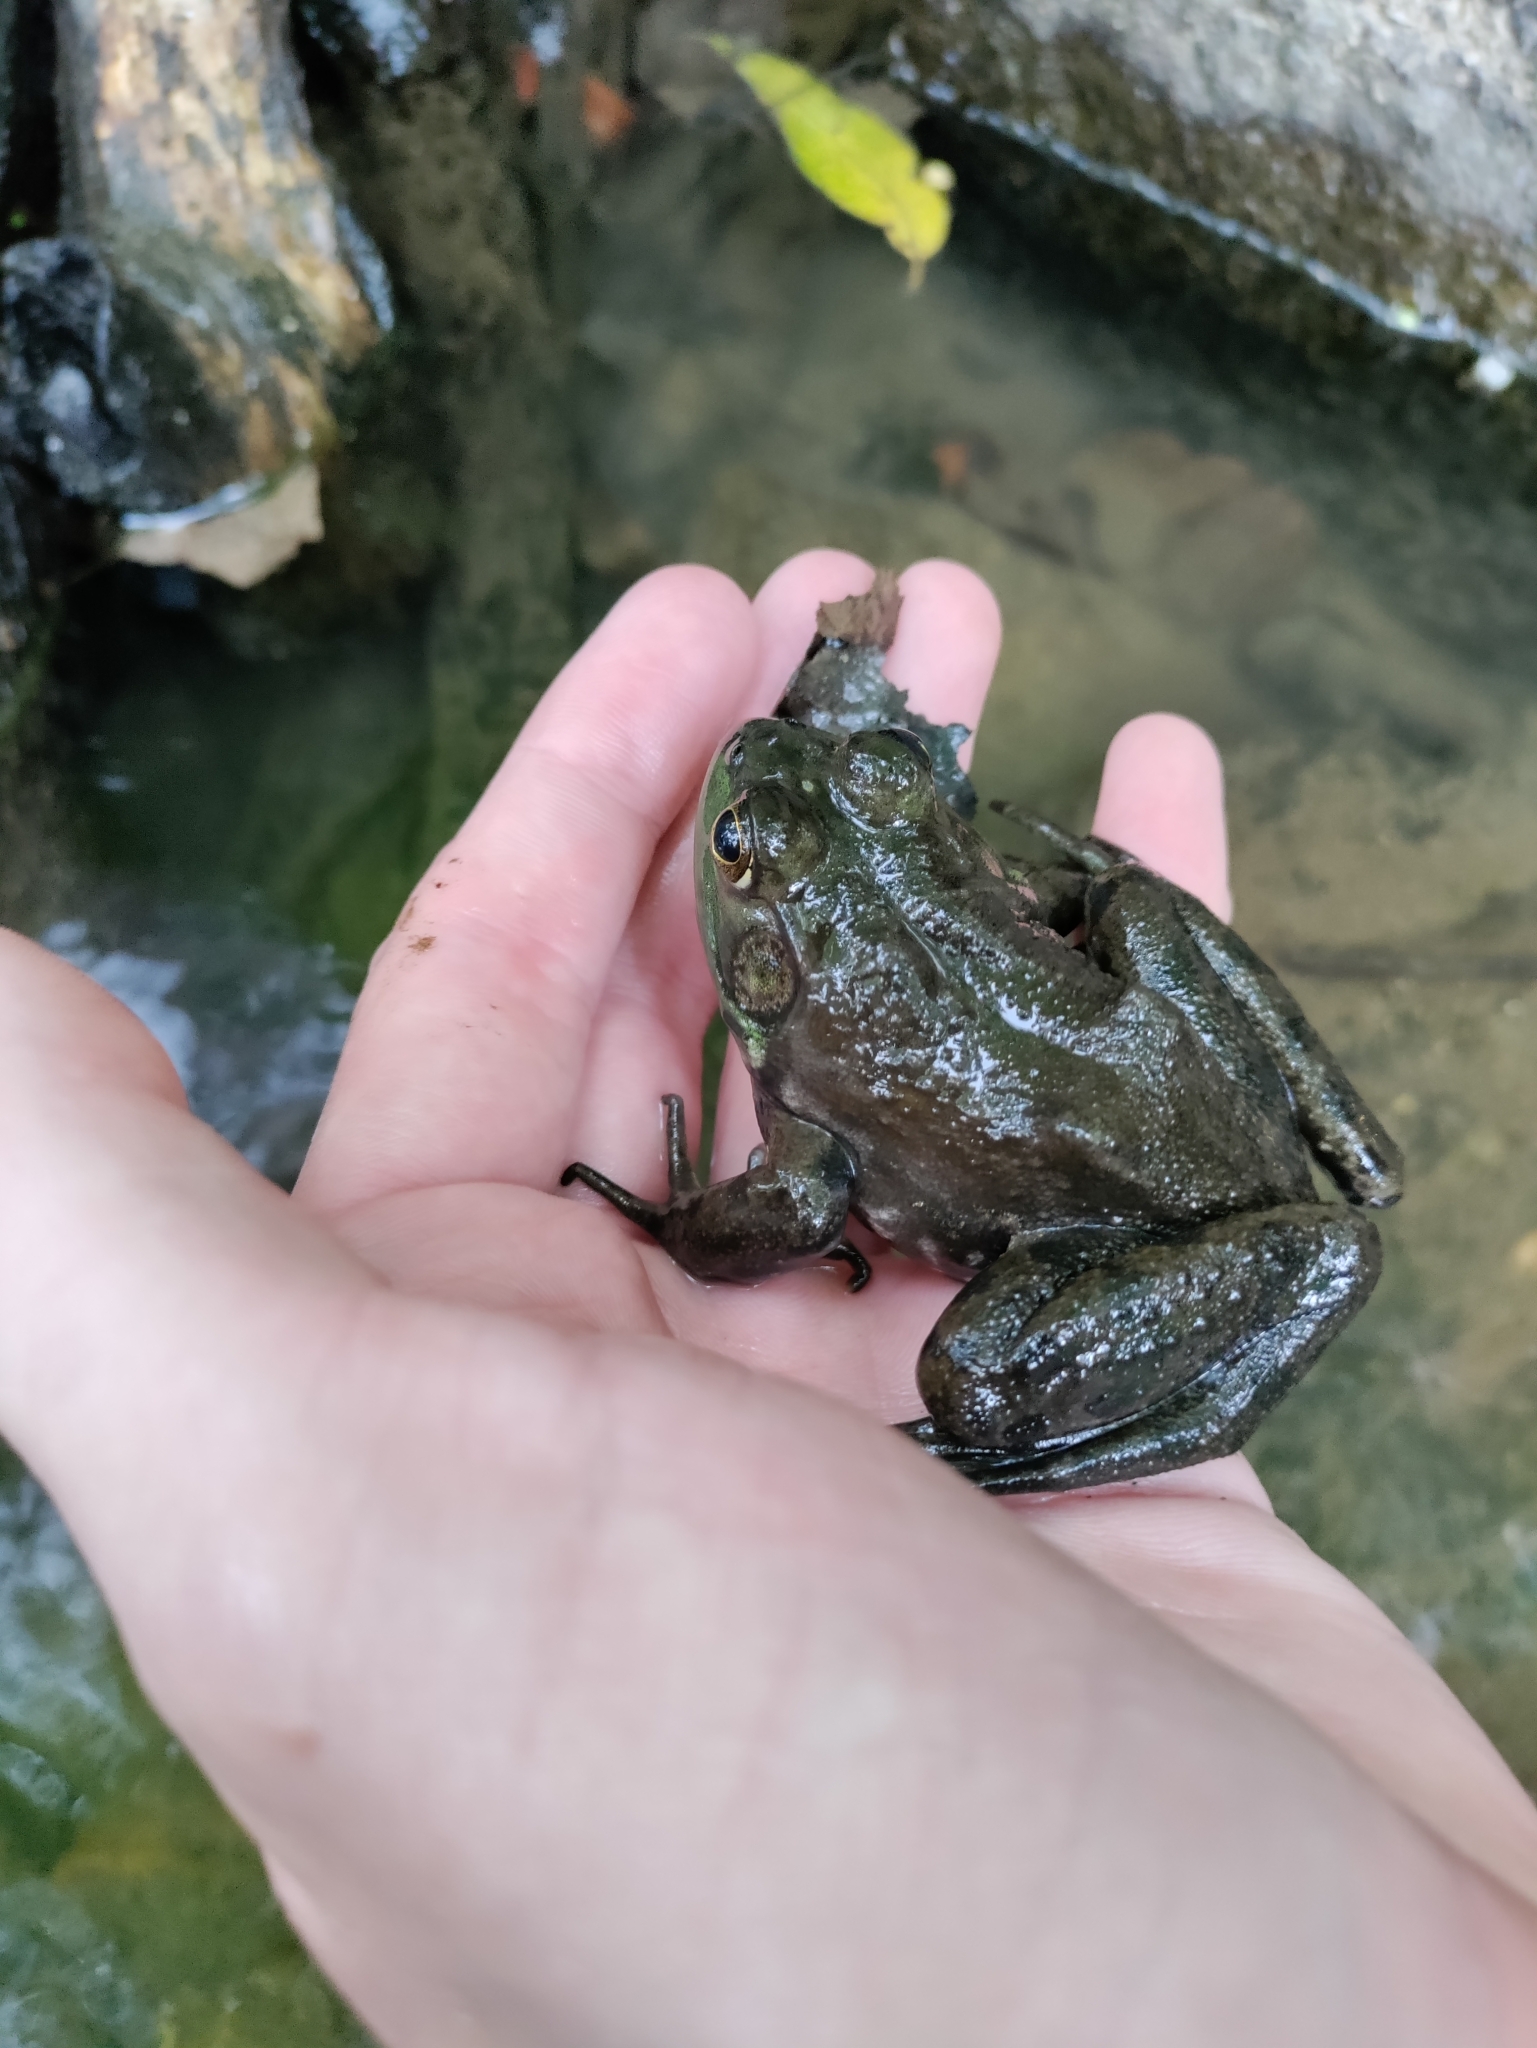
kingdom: Animalia
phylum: Chordata
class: Amphibia
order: Anura
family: Ranidae
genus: Lithobates
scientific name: Lithobates catesbeianus
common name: American bullfrog
